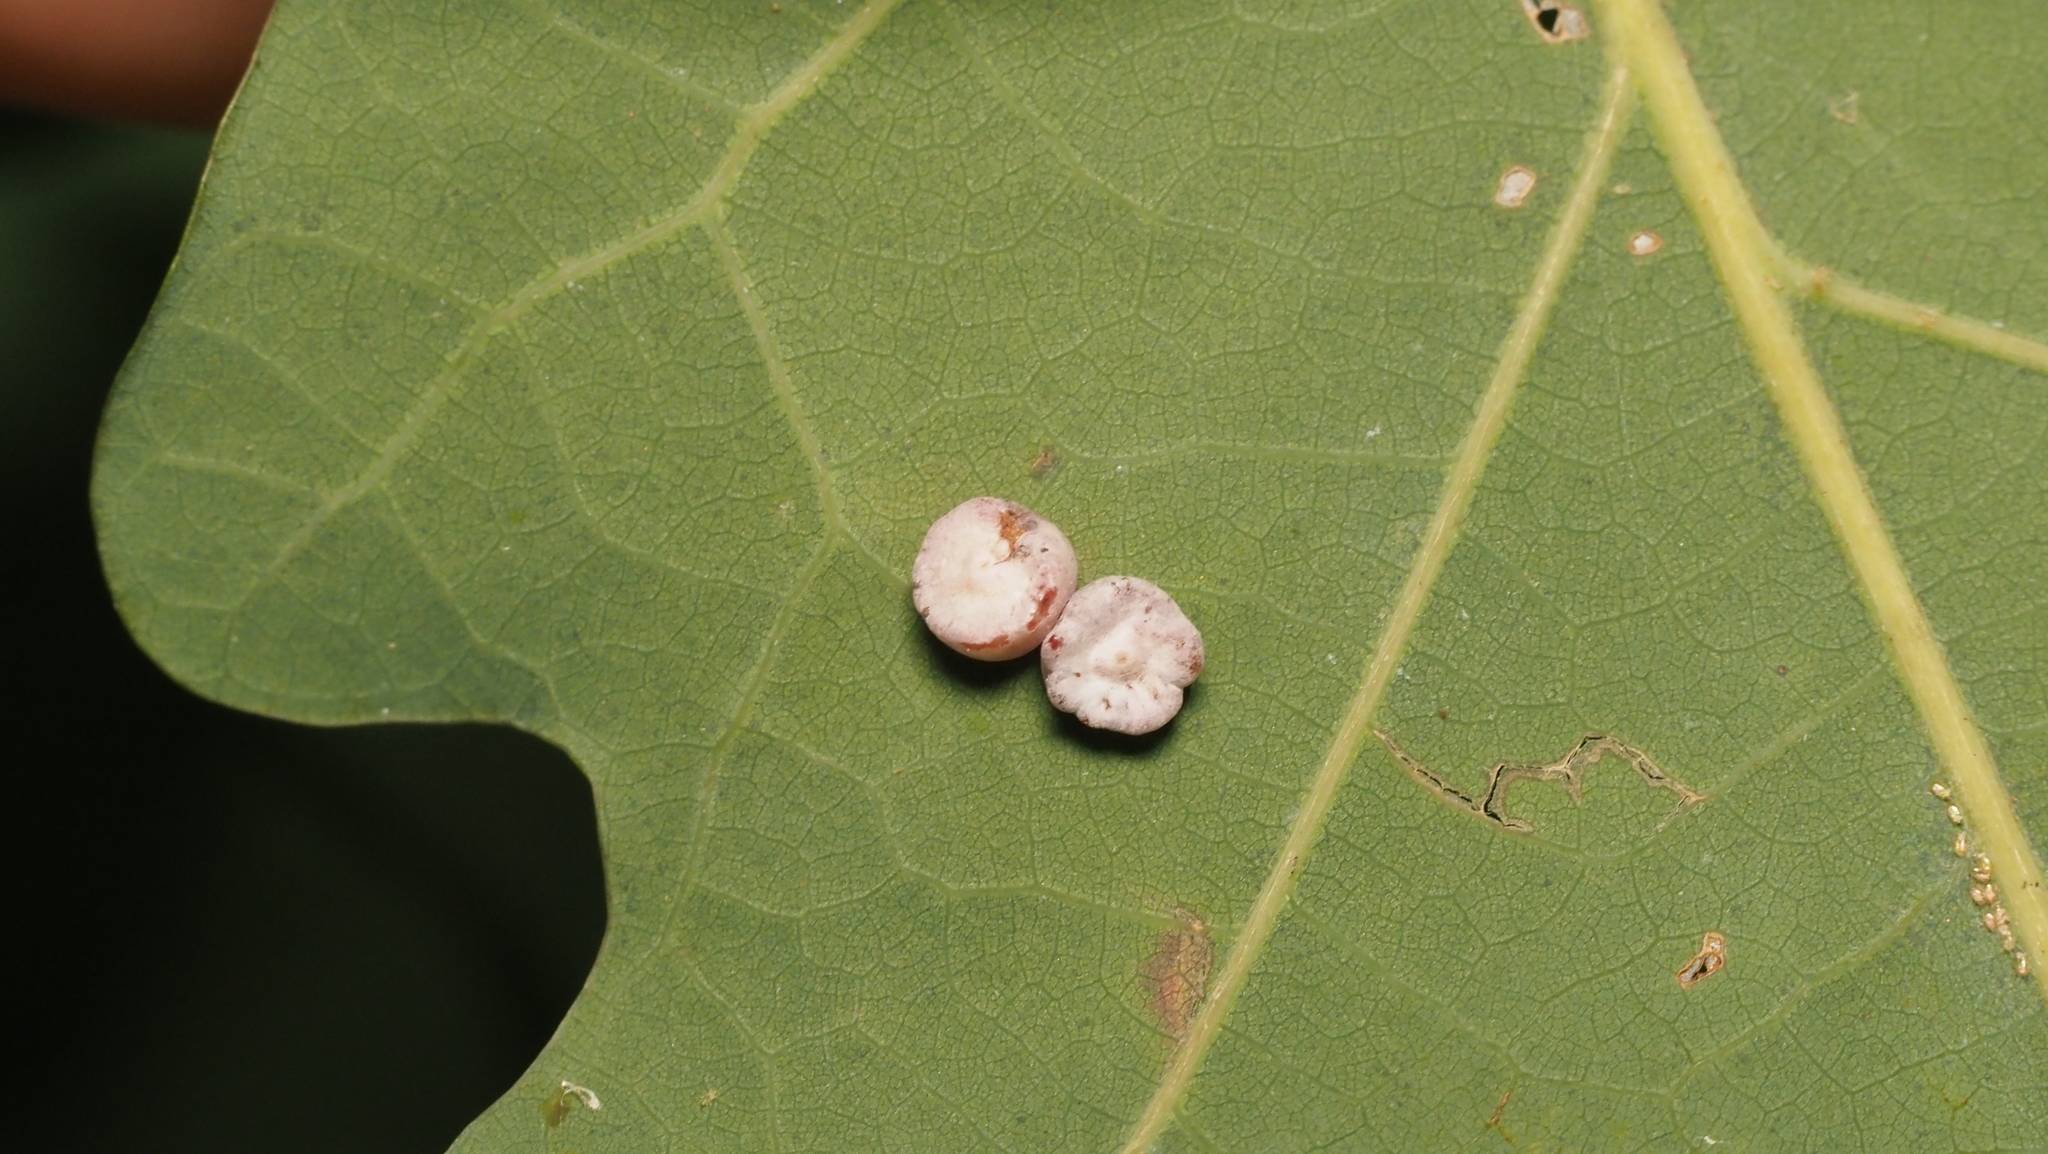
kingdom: Animalia
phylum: Arthropoda
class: Insecta
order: Hymenoptera
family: Cynipidae
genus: Phylloteras
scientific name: Phylloteras poculum
